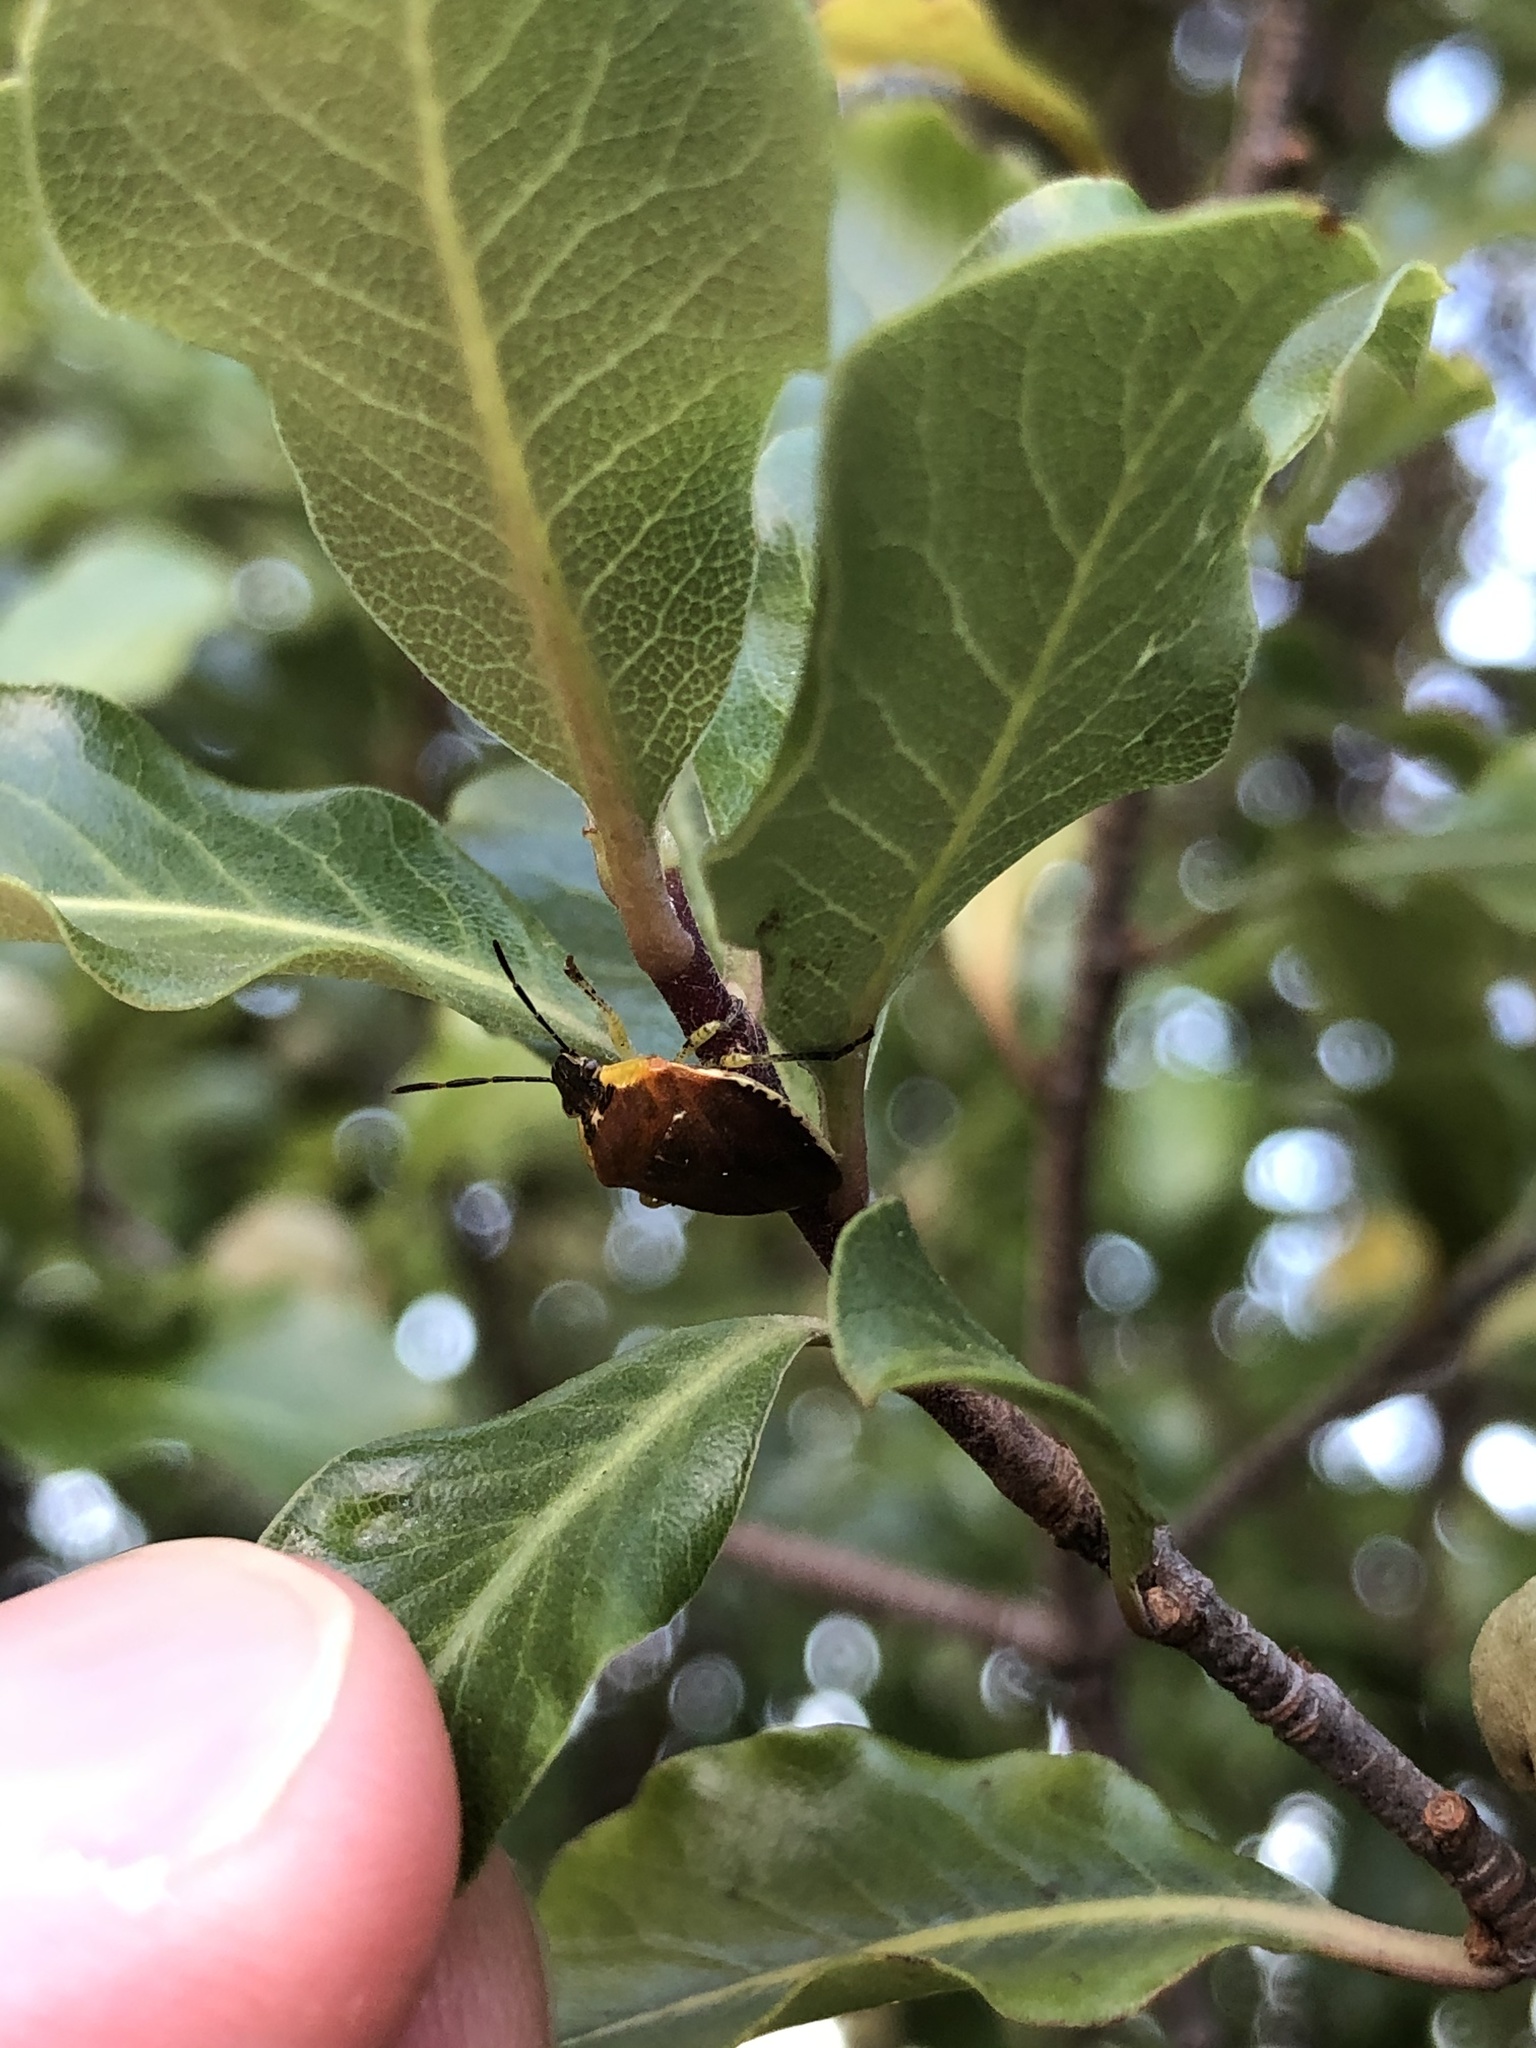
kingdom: Animalia
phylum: Arthropoda
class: Insecta
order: Hemiptera
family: Pentatomidae
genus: Monteithiella
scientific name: Monteithiella
